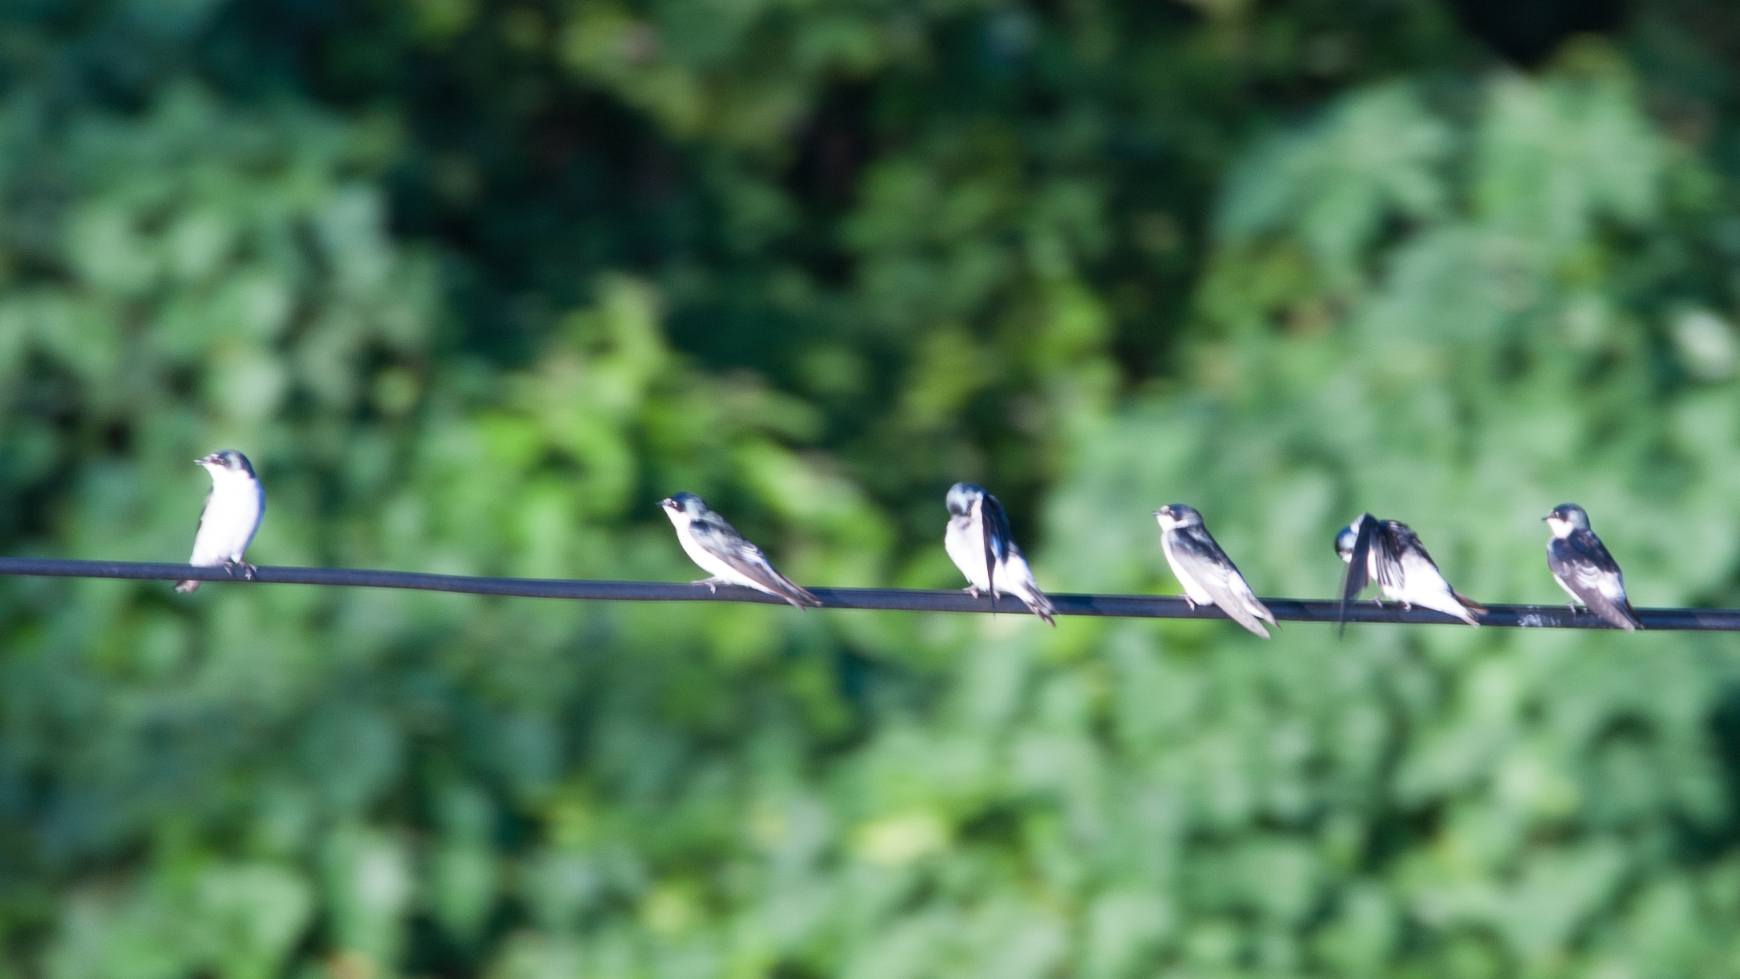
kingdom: Animalia
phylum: Chordata
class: Aves
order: Passeriformes
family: Hirundinidae
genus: Tachycineta
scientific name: Tachycineta albilinea
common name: Mangrove swallow
